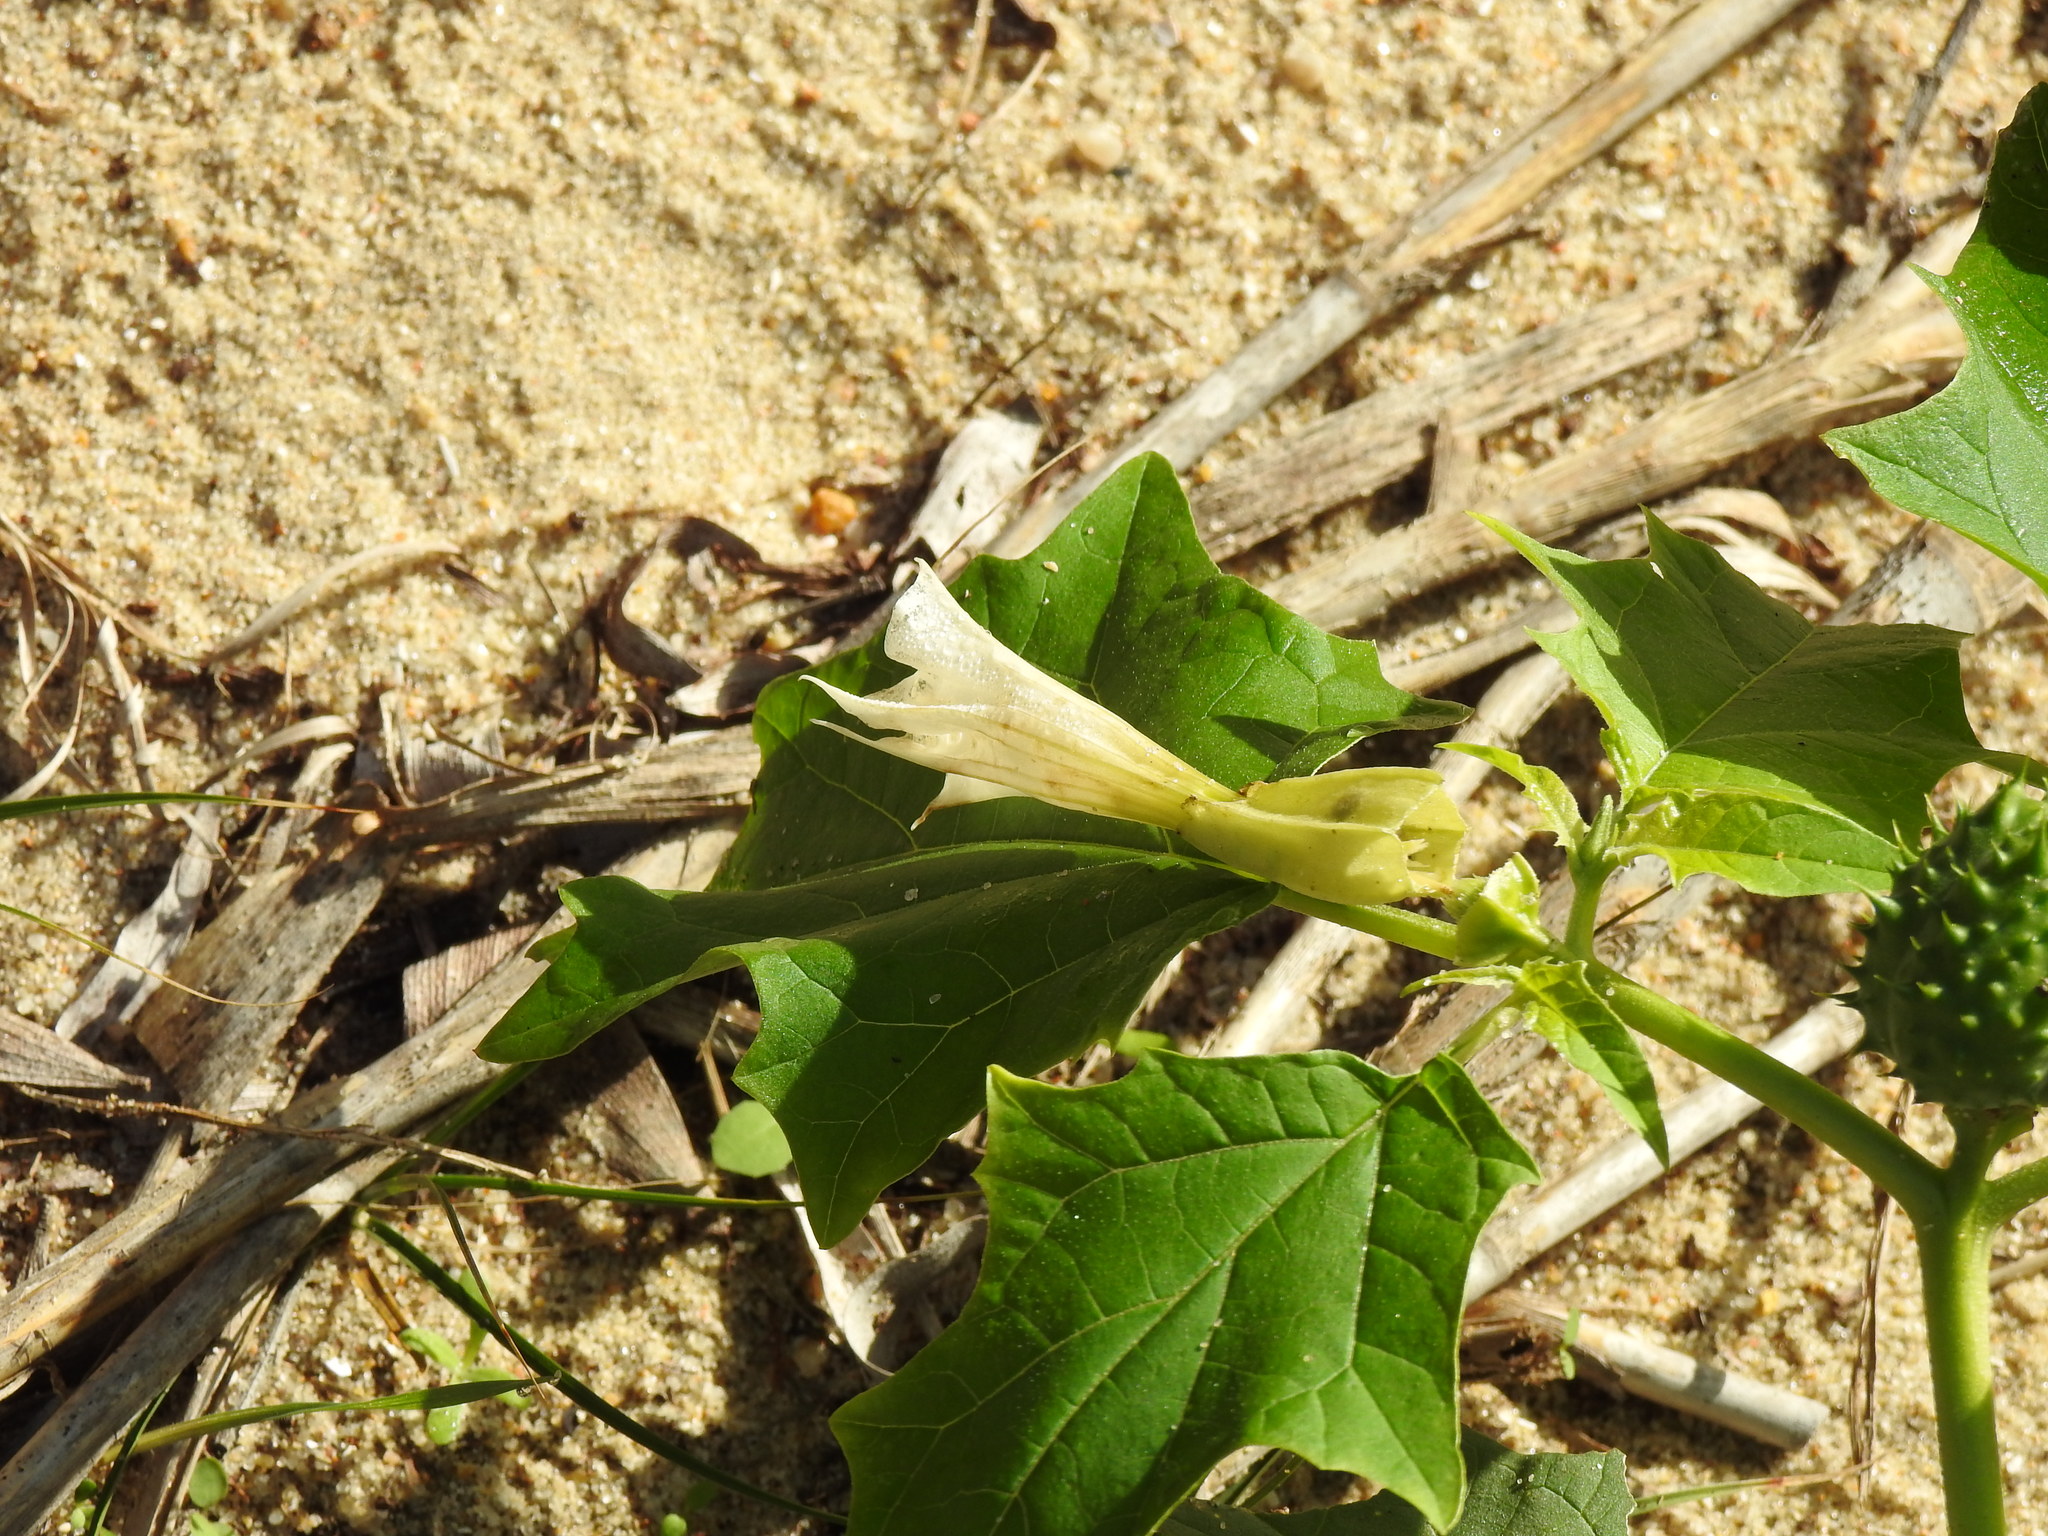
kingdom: Plantae
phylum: Tracheophyta
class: Magnoliopsida
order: Solanales
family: Solanaceae
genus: Datura
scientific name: Datura stramonium
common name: Thorn-apple
